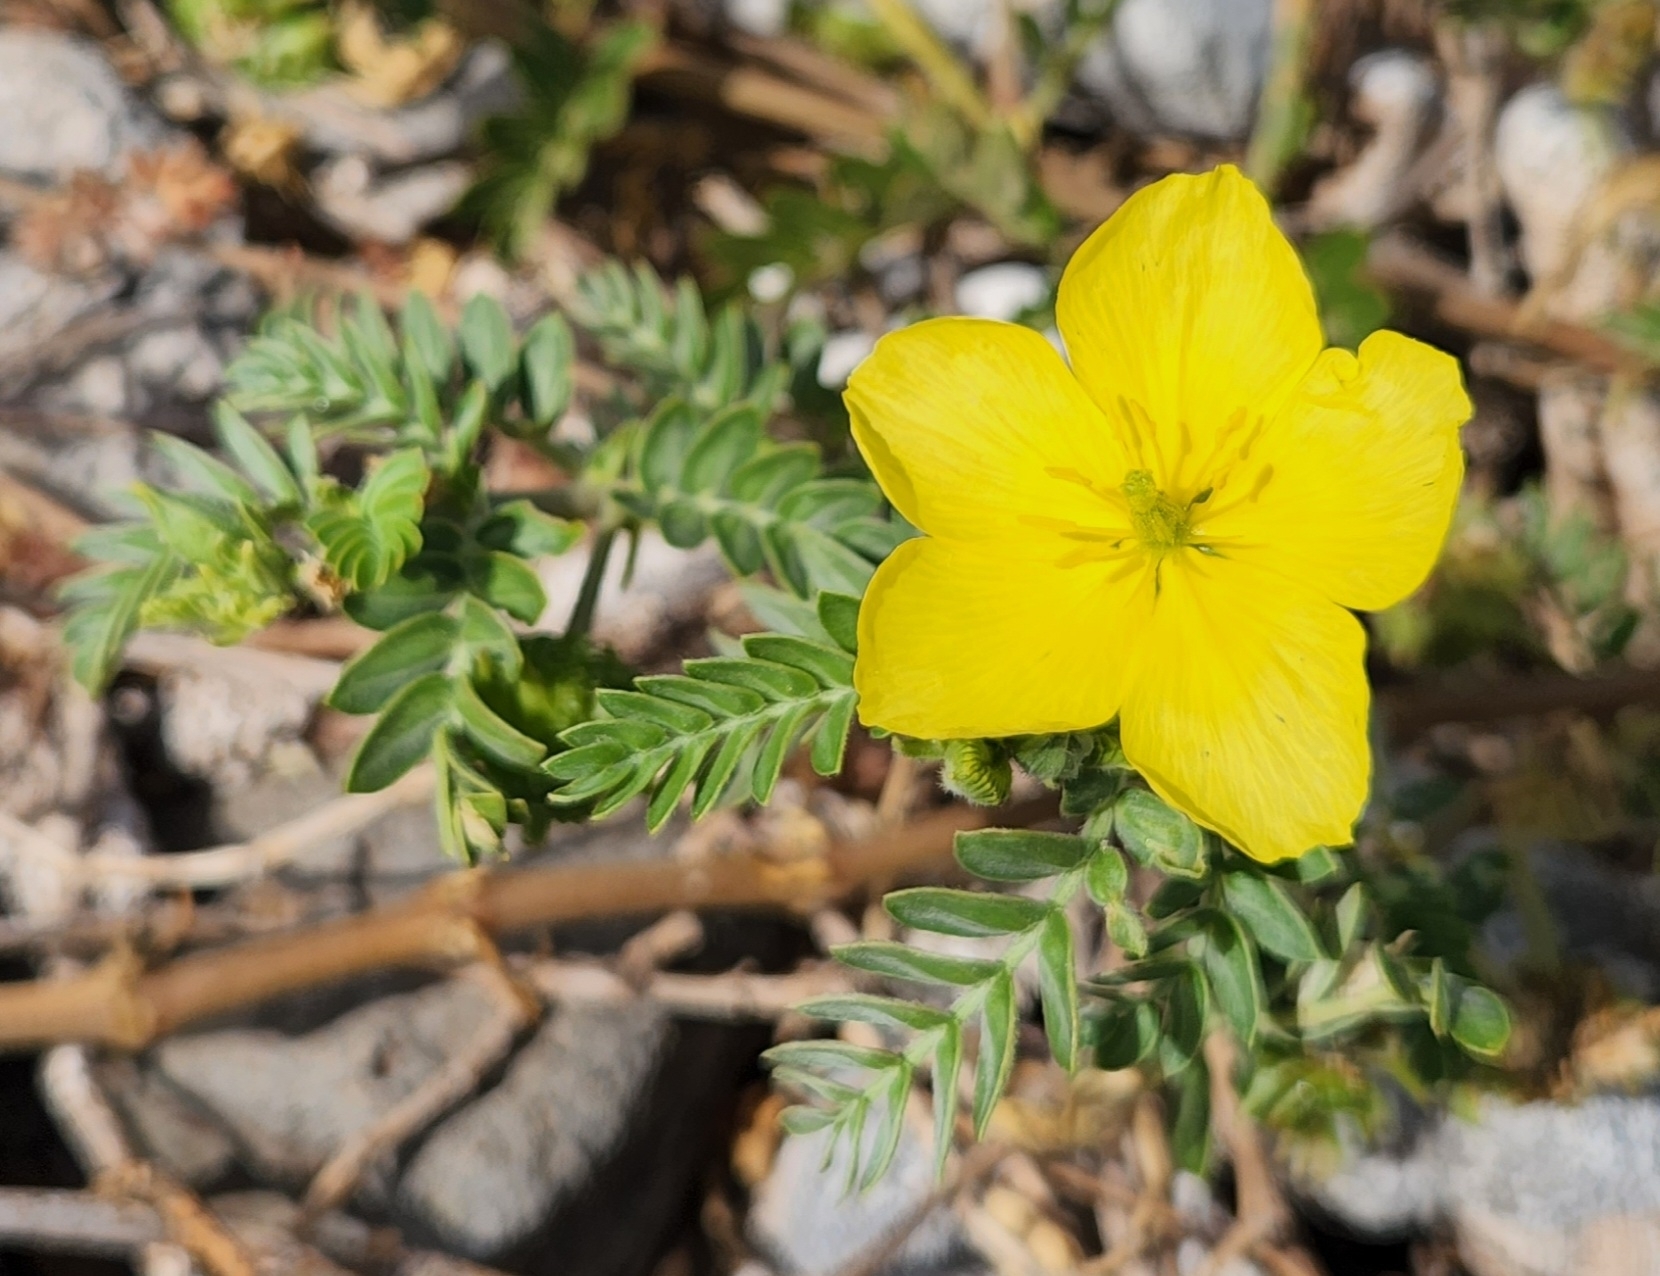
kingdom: Plantae
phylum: Tracheophyta
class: Magnoliopsida
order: Zygophyllales
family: Zygophyllaceae
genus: Tribulus
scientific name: Tribulus cistoides
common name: Jamaican feverplant
